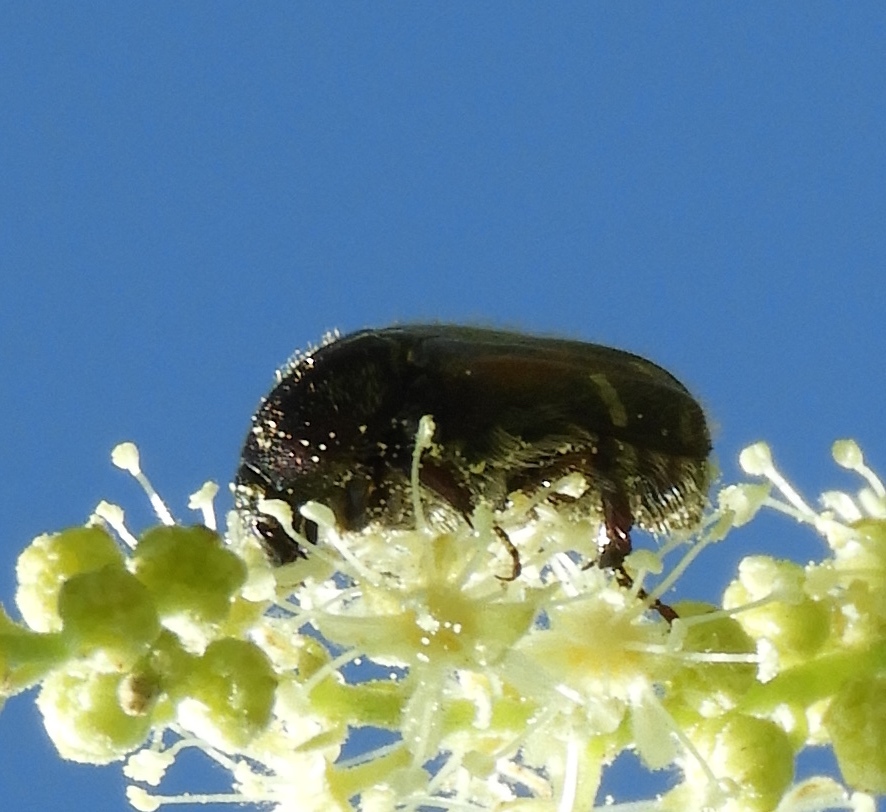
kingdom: Animalia
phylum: Arthropoda
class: Insecta
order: Coleoptera
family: Scarabaeidae
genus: Euphoria
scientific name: Euphoria pulchella
